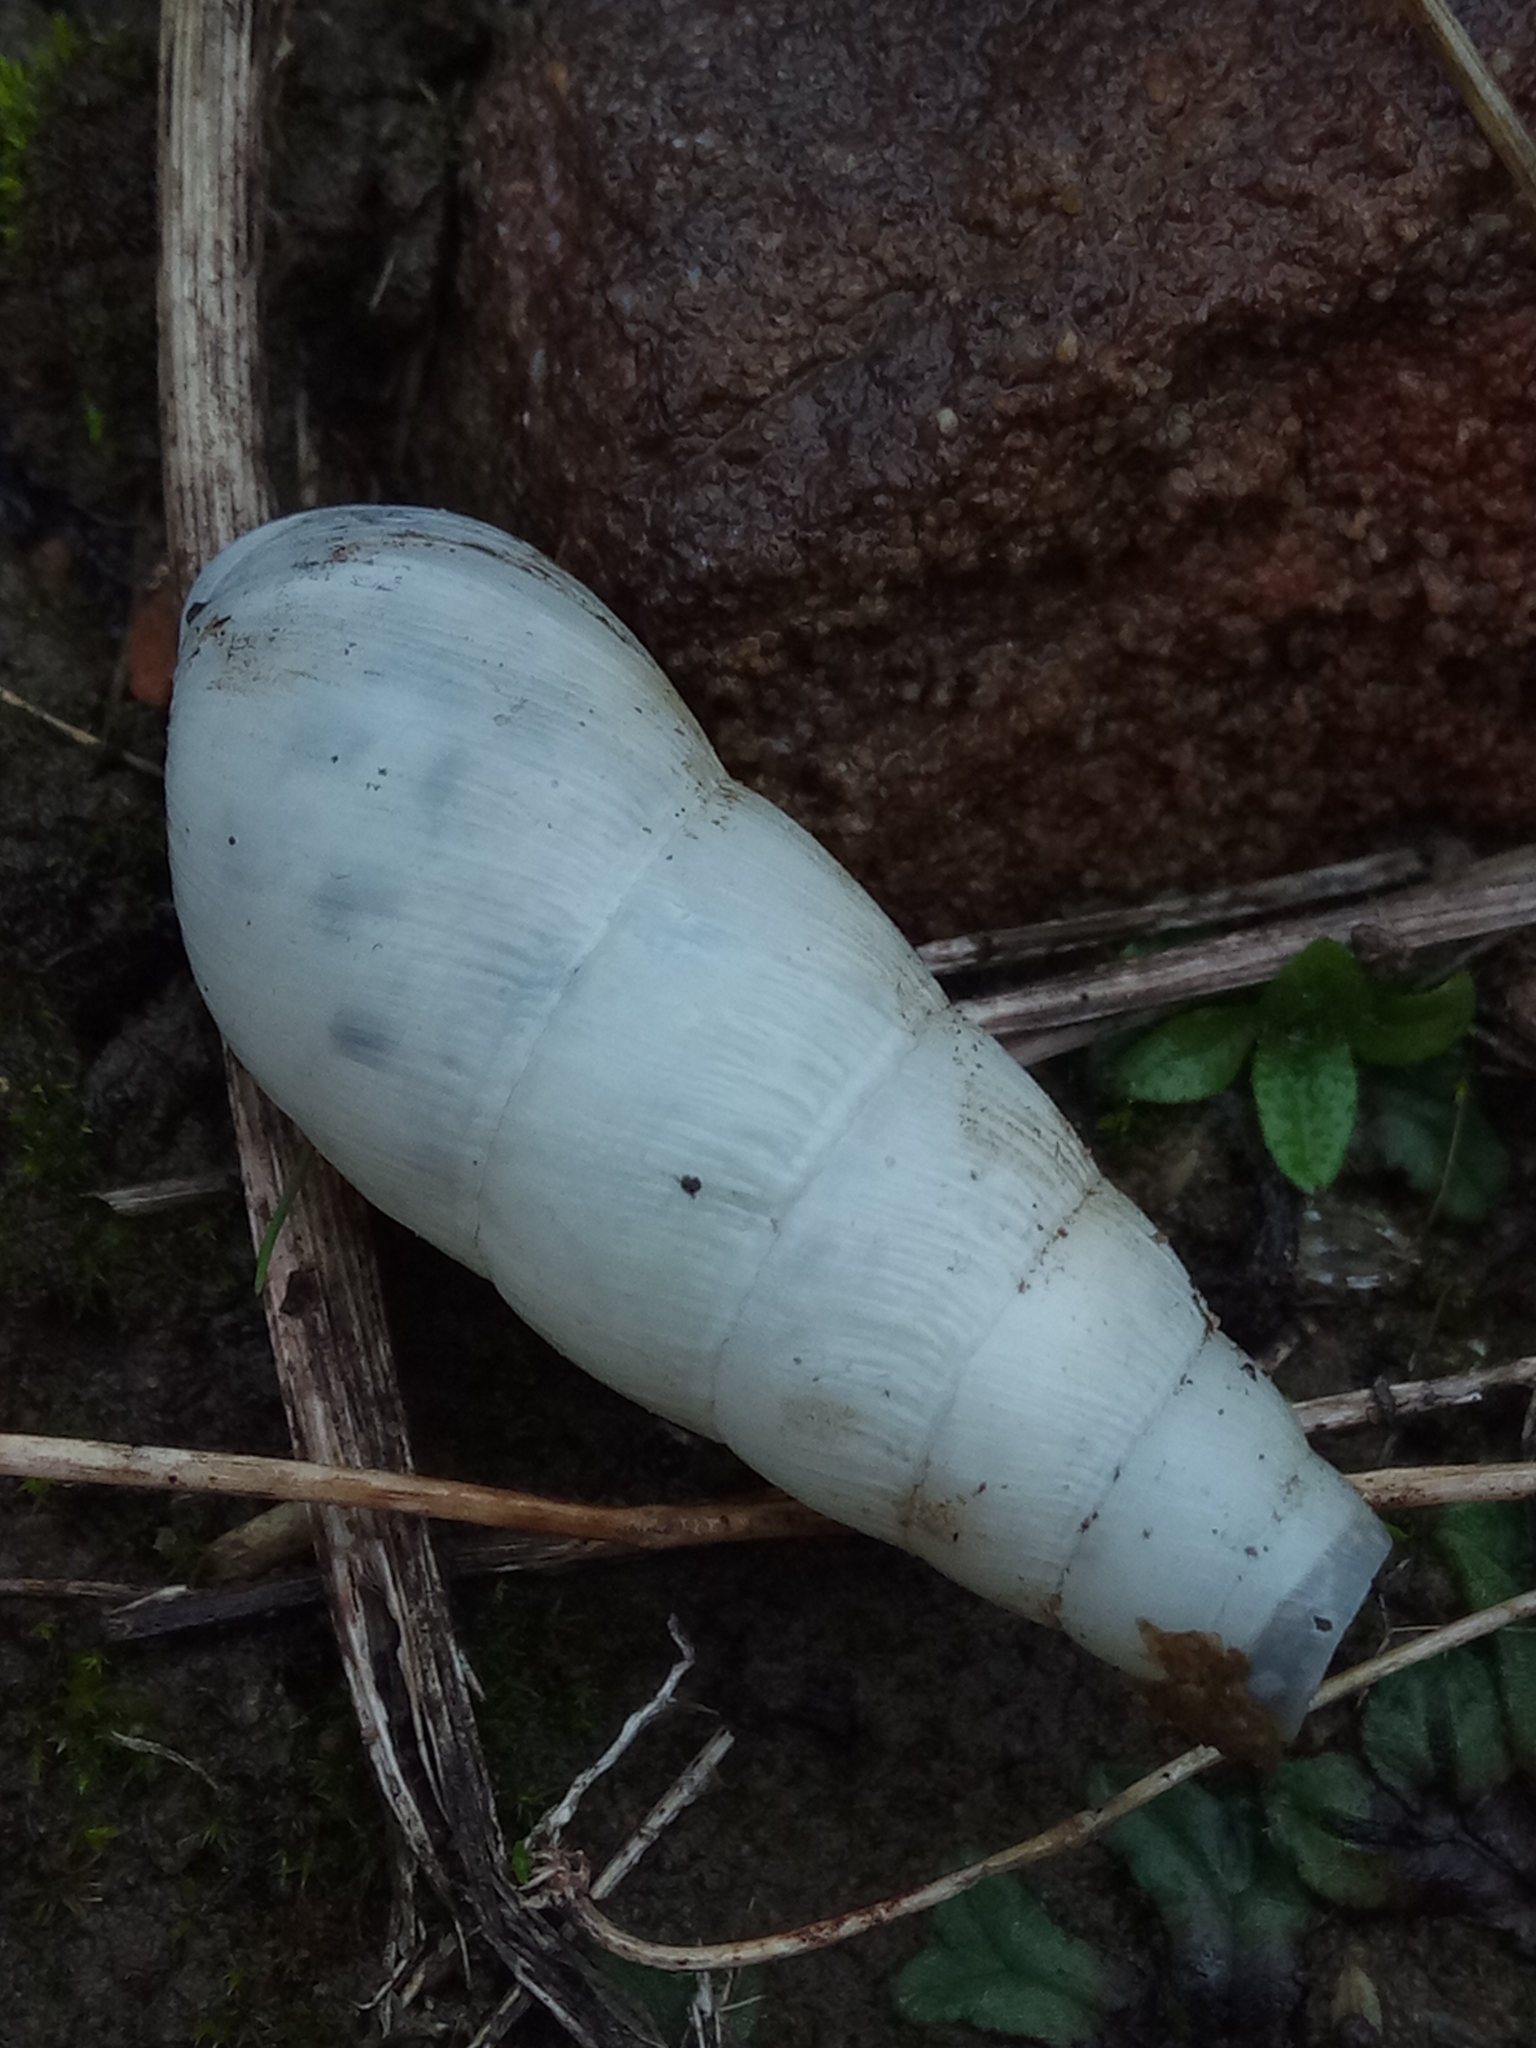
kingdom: Animalia
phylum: Mollusca
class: Gastropoda
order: Stylommatophora
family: Achatinidae
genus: Rumina
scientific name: Rumina decollata
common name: Decollate snail
